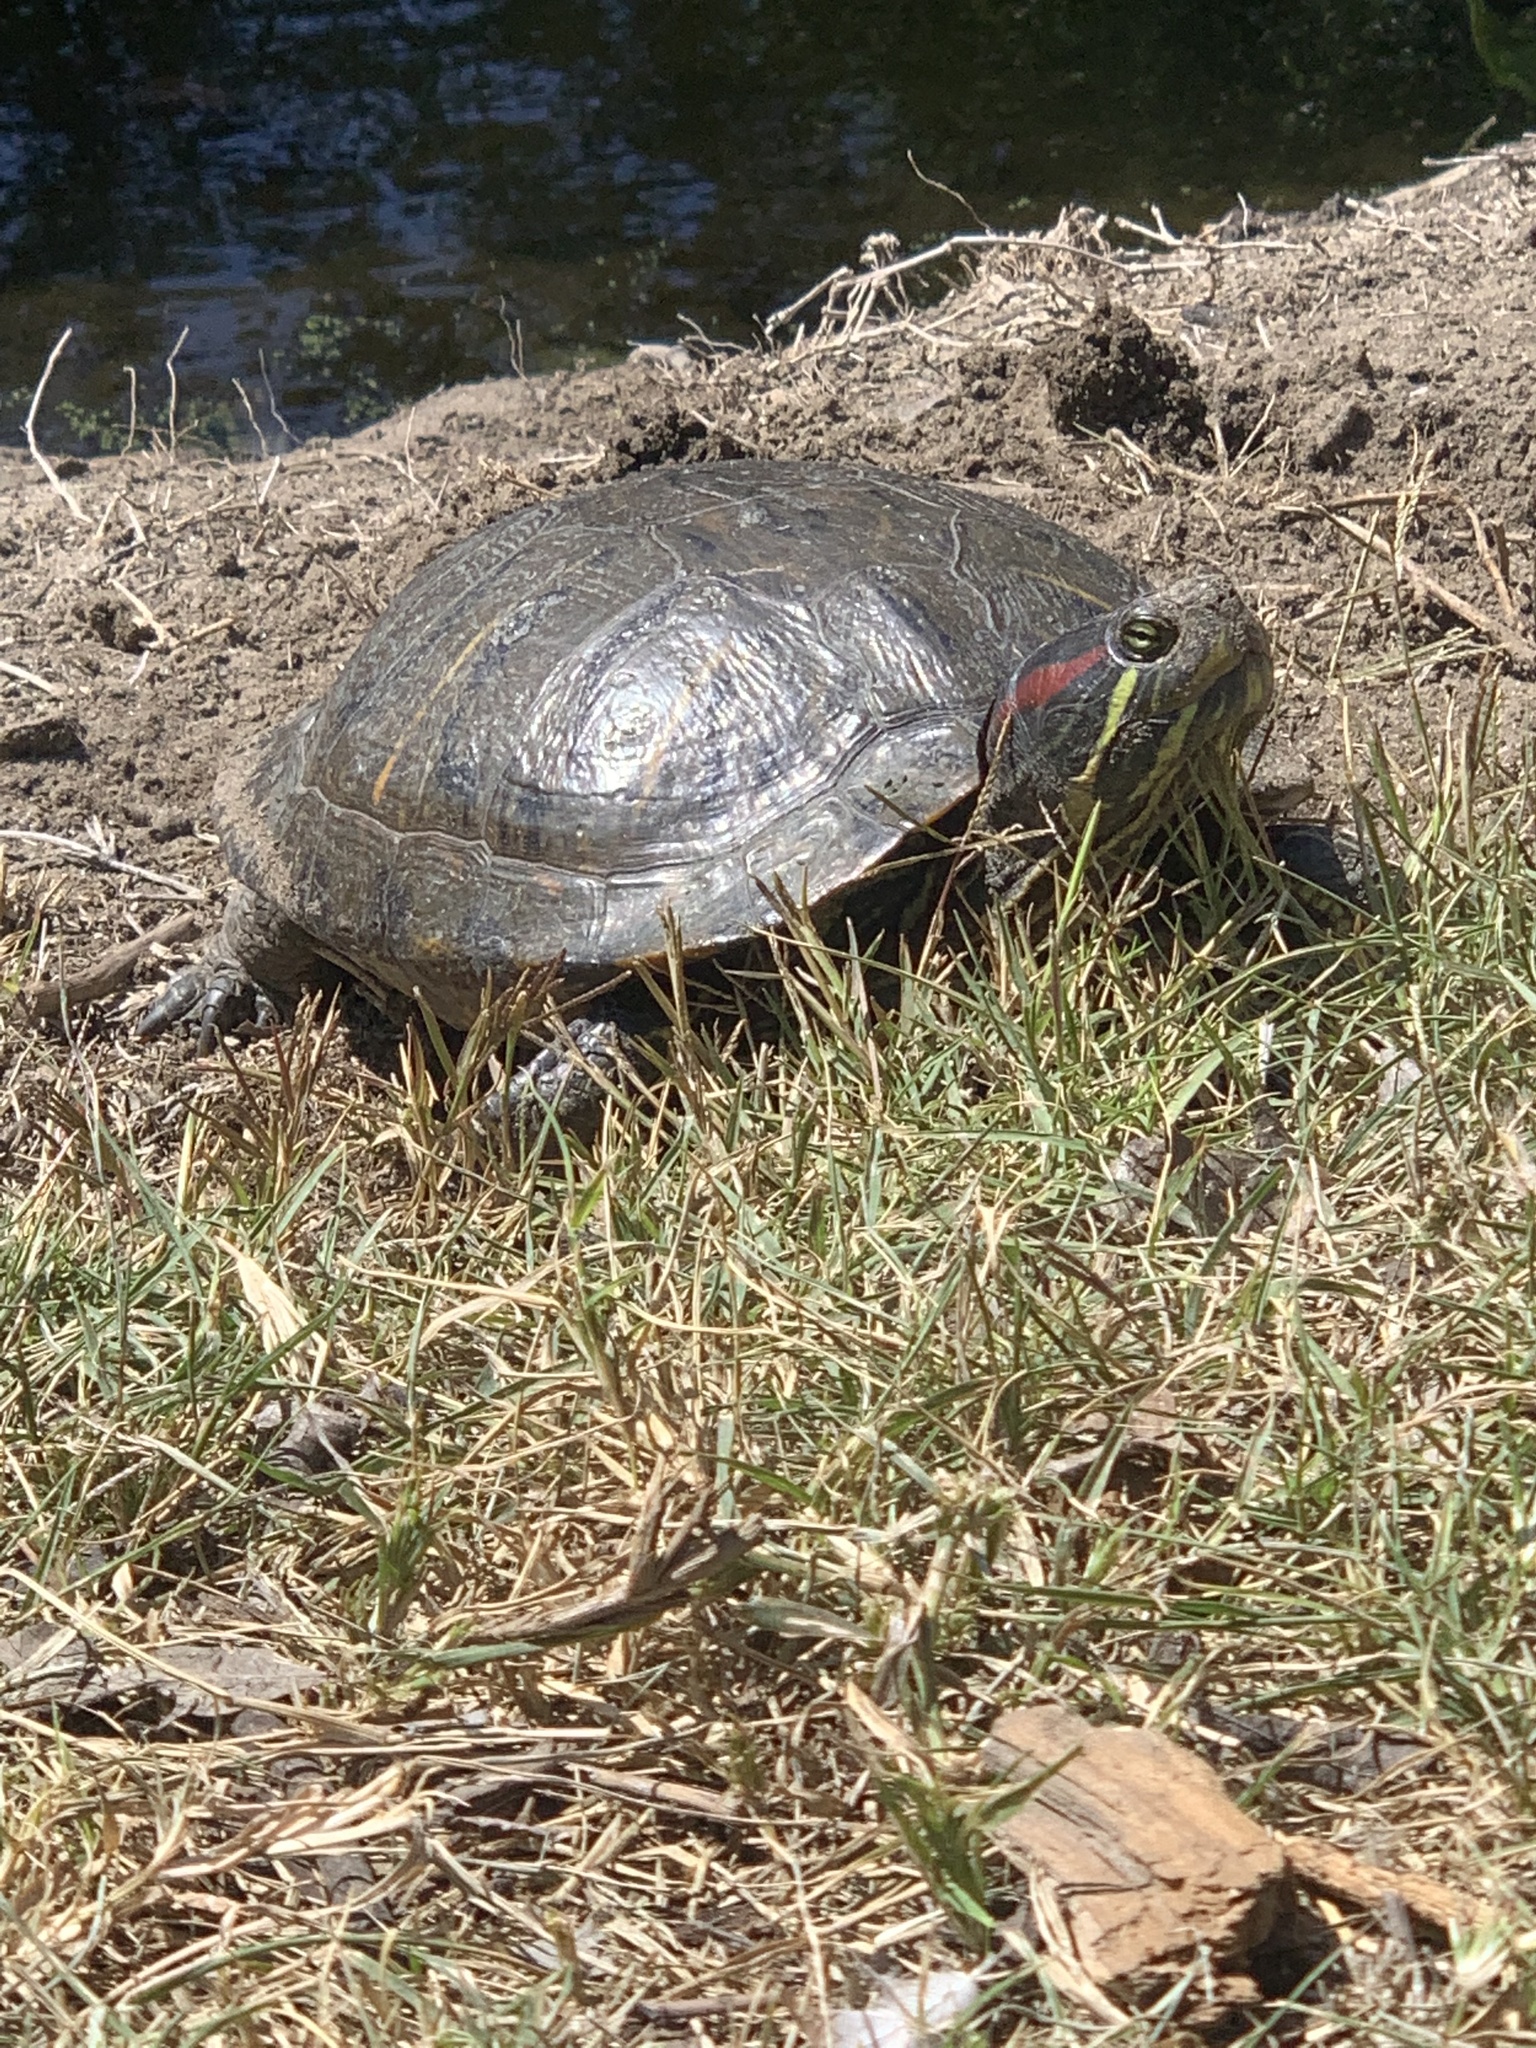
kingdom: Animalia
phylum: Chordata
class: Testudines
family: Emydidae
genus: Trachemys
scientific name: Trachemys scripta
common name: Slider
